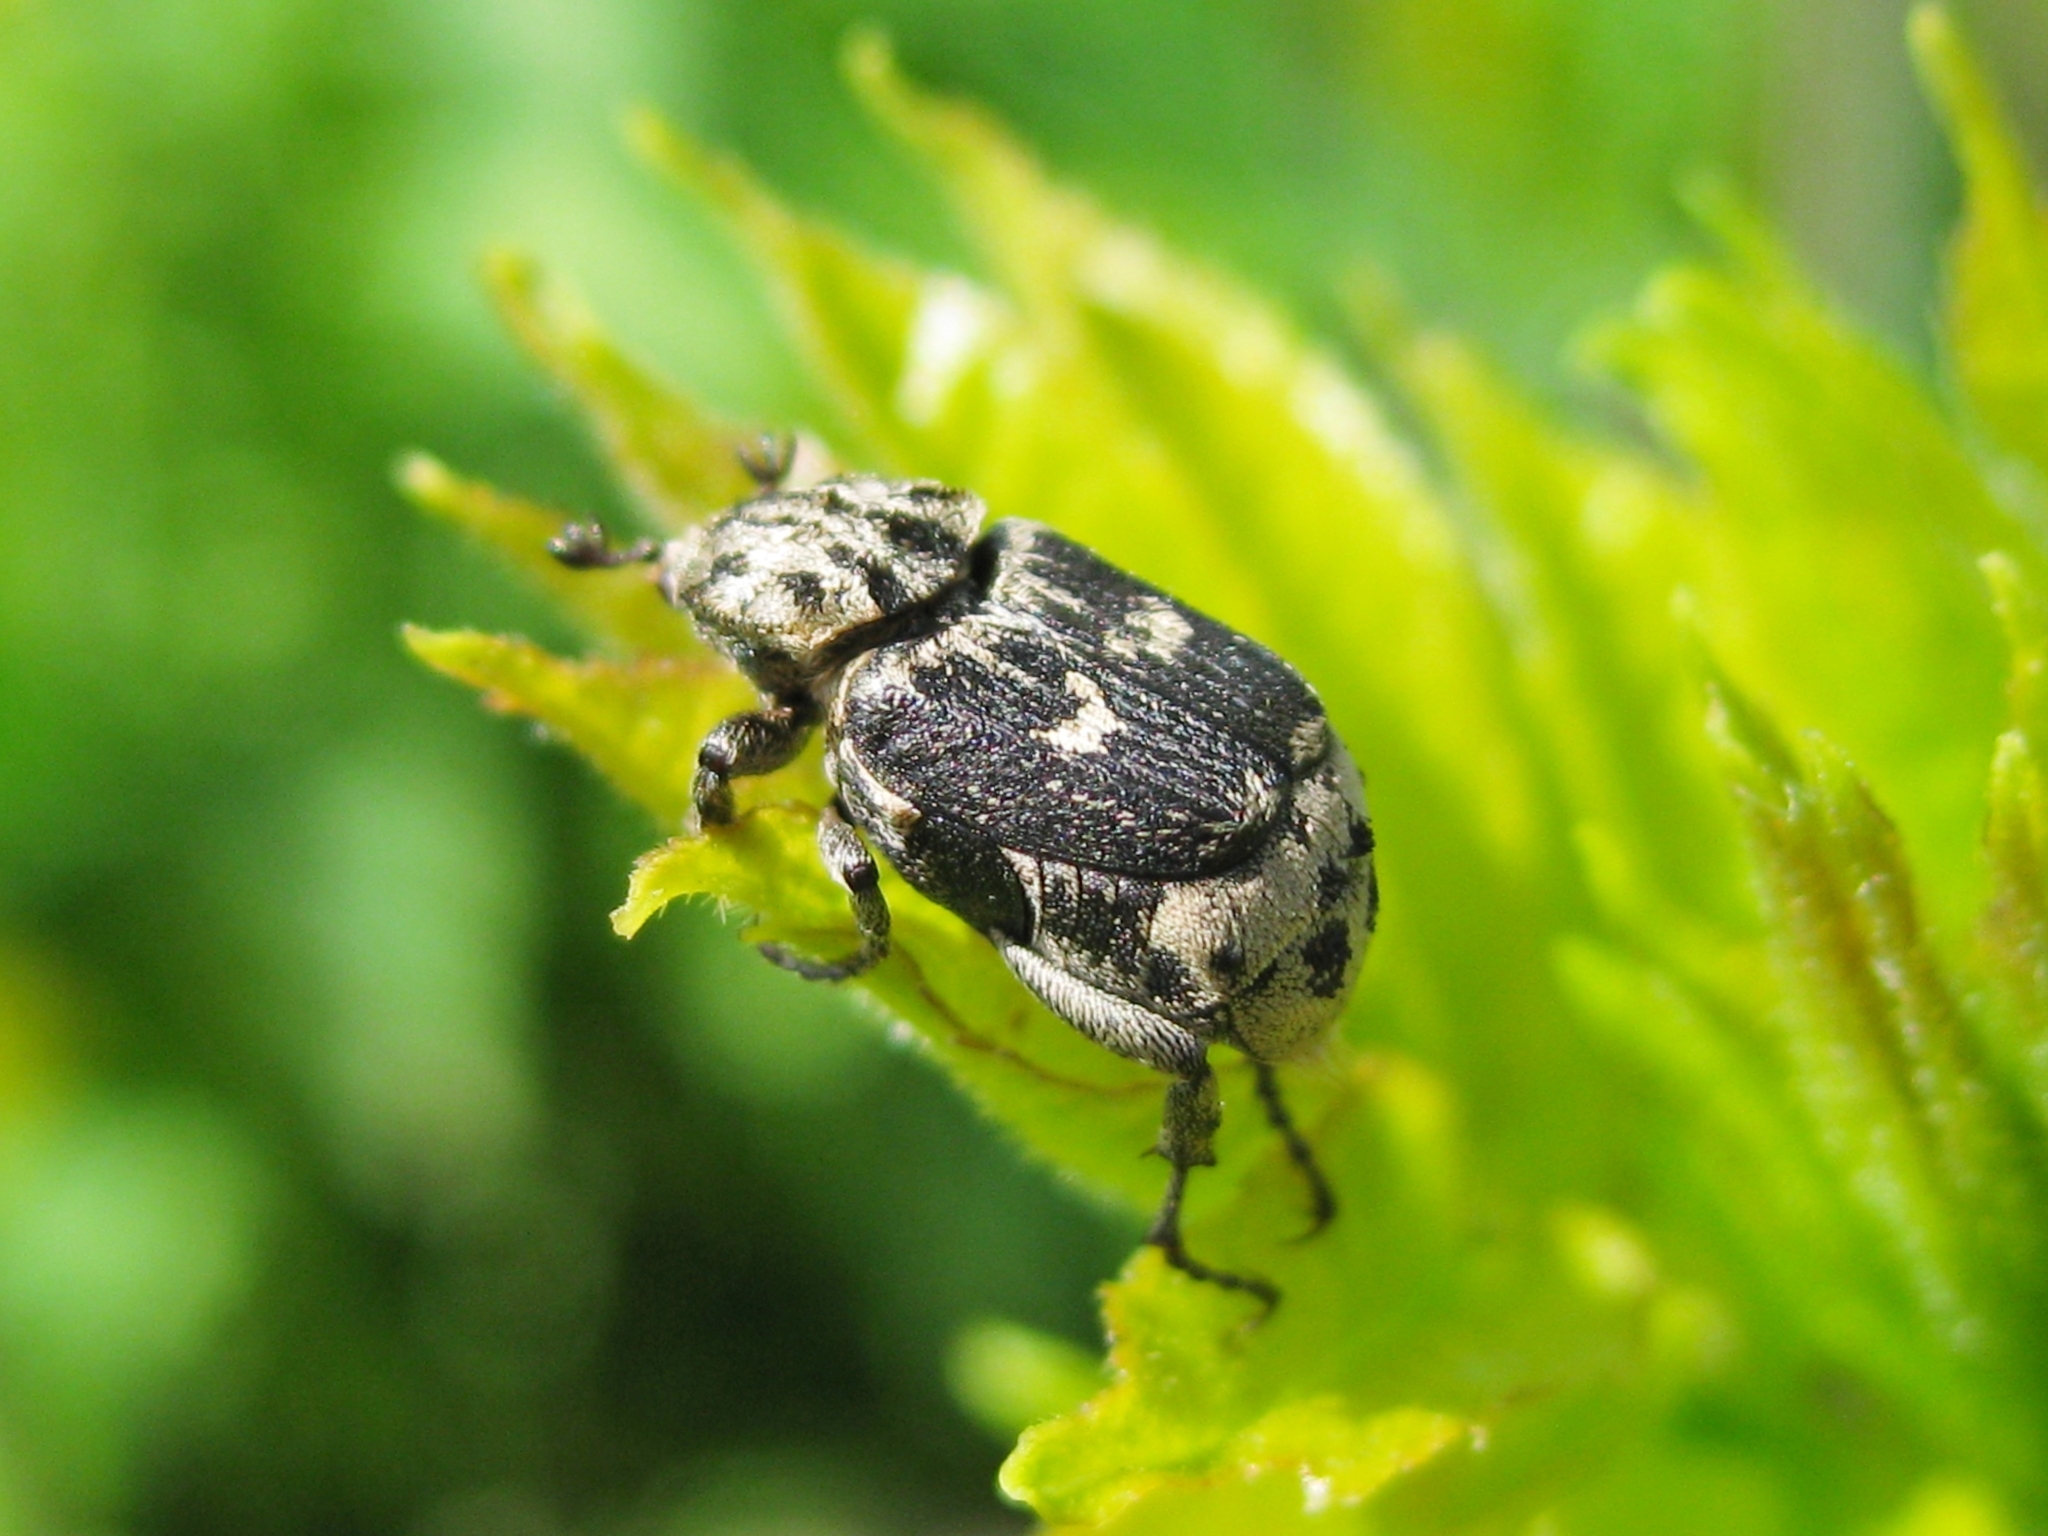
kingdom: Animalia
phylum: Arthropoda
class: Insecta
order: Coleoptera
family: Scarabaeidae
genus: Valgus
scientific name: Valgus hemipterus
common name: Bug flower chafer
